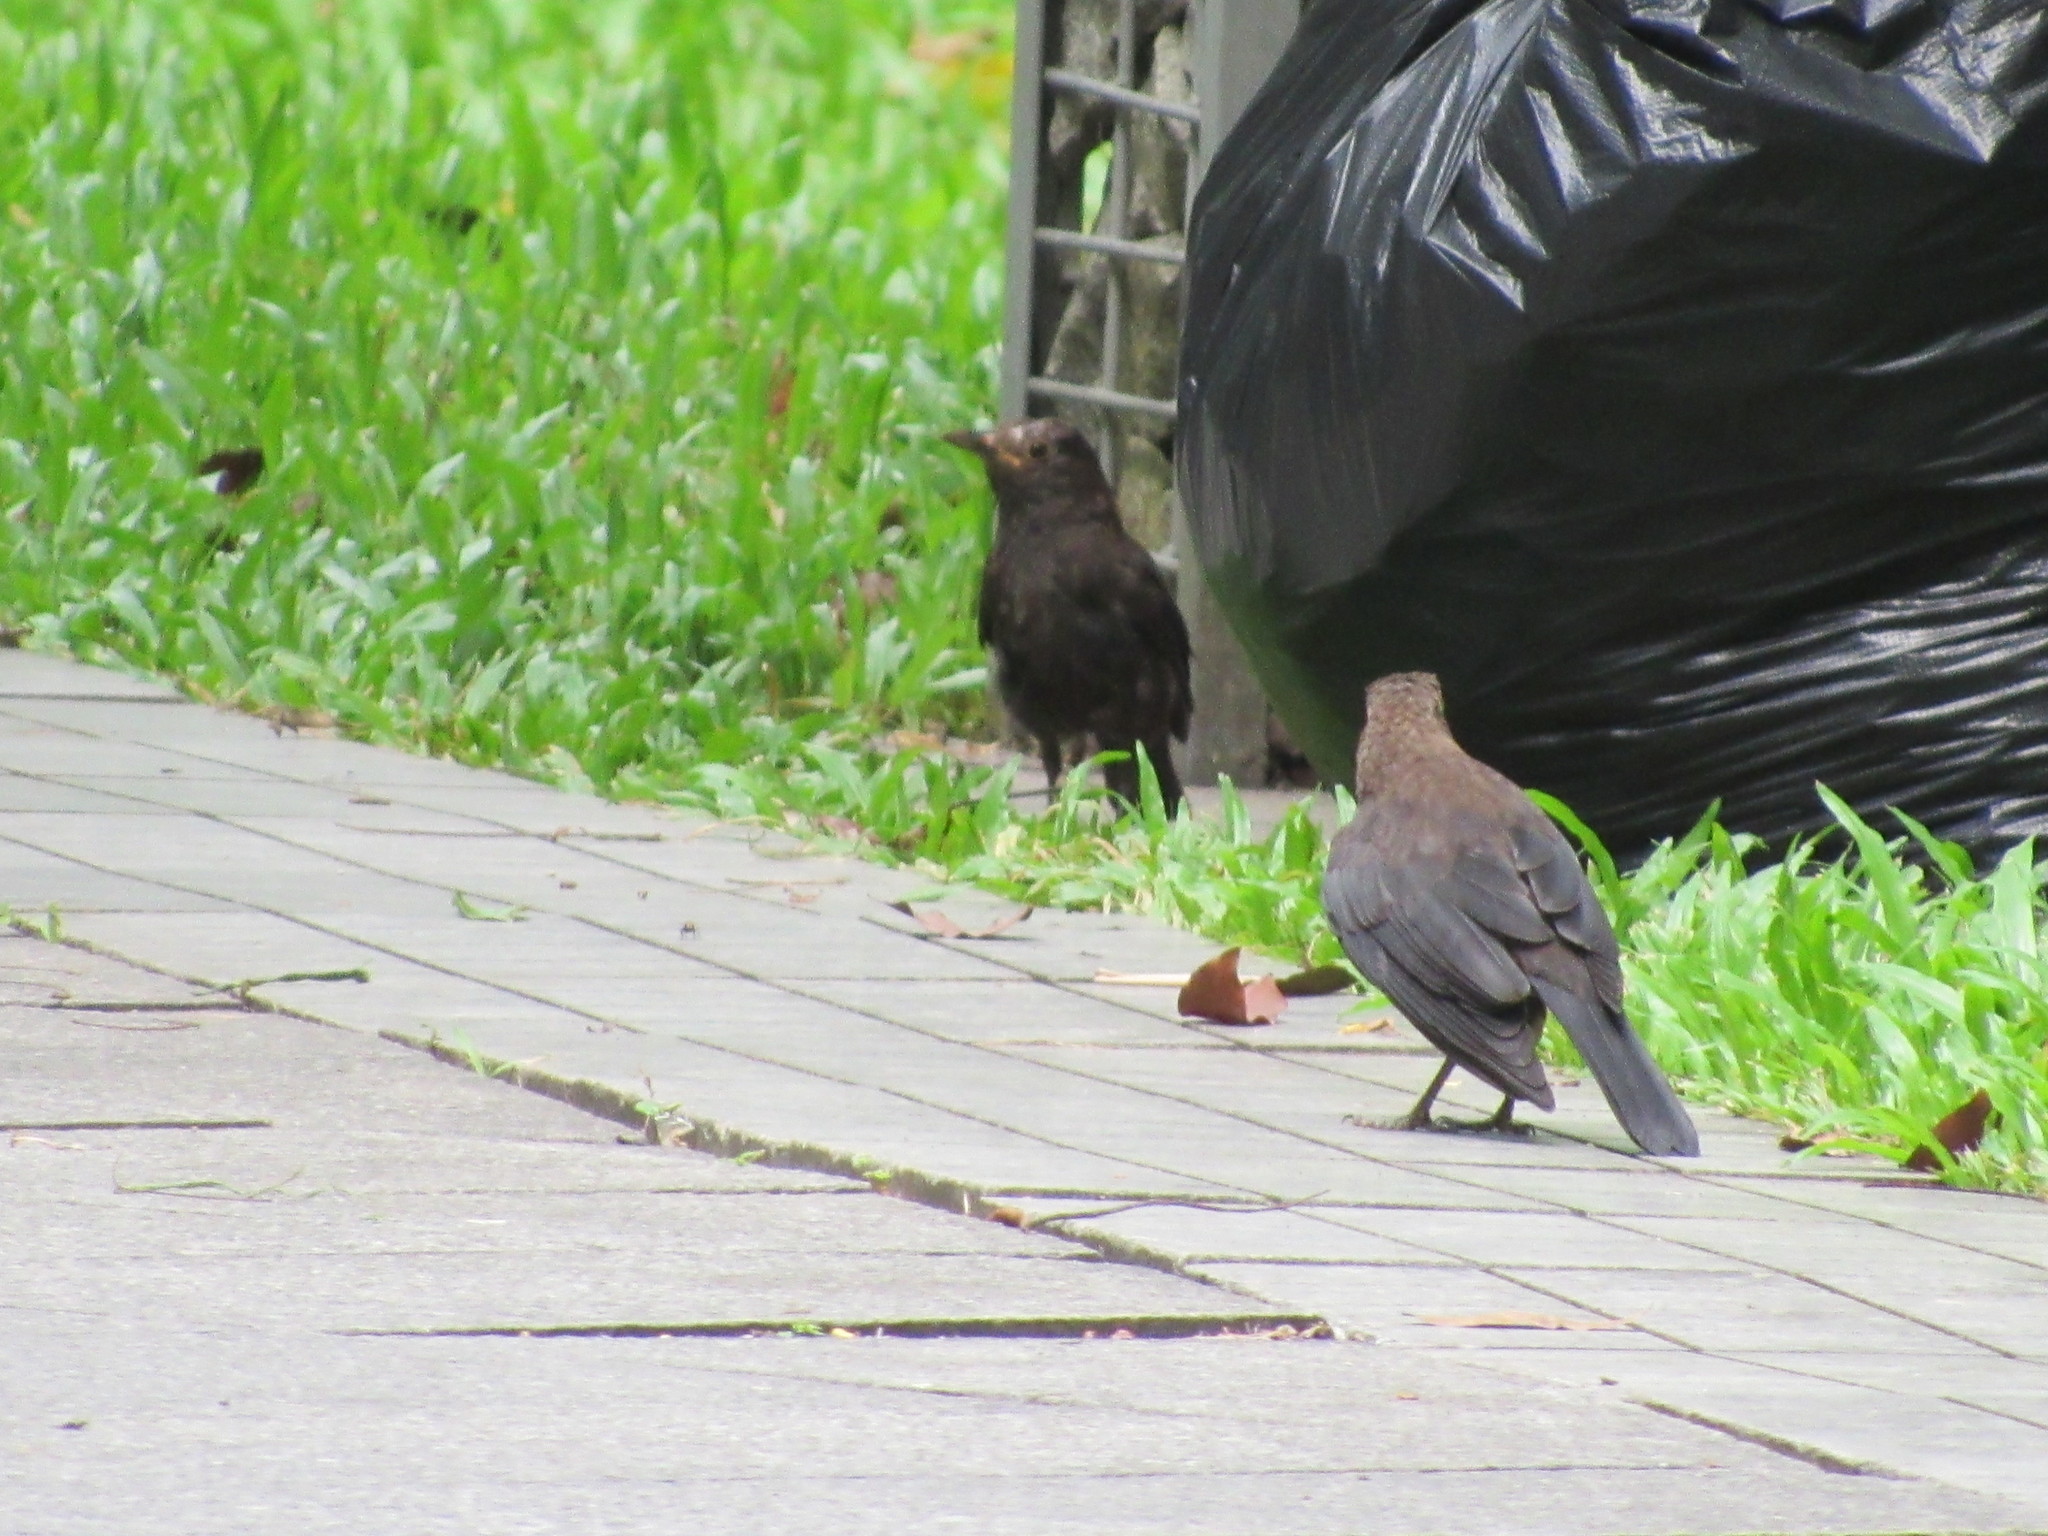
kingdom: Animalia
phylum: Chordata
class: Aves
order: Passeriformes
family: Turdidae
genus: Turdus
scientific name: Turdus mandarinus
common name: Chinese blackbird
